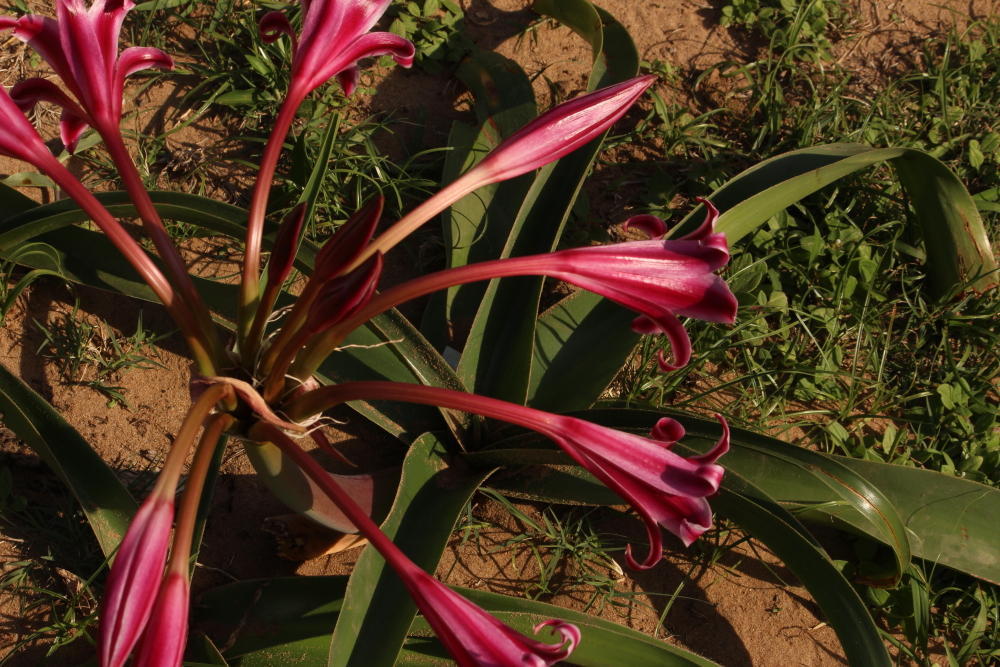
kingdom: Plantae
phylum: Tracheophyta
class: Liliopsida
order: Asparagales
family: Amaryllidaceae
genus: Crinum
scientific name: Crinum stuhlmannii
